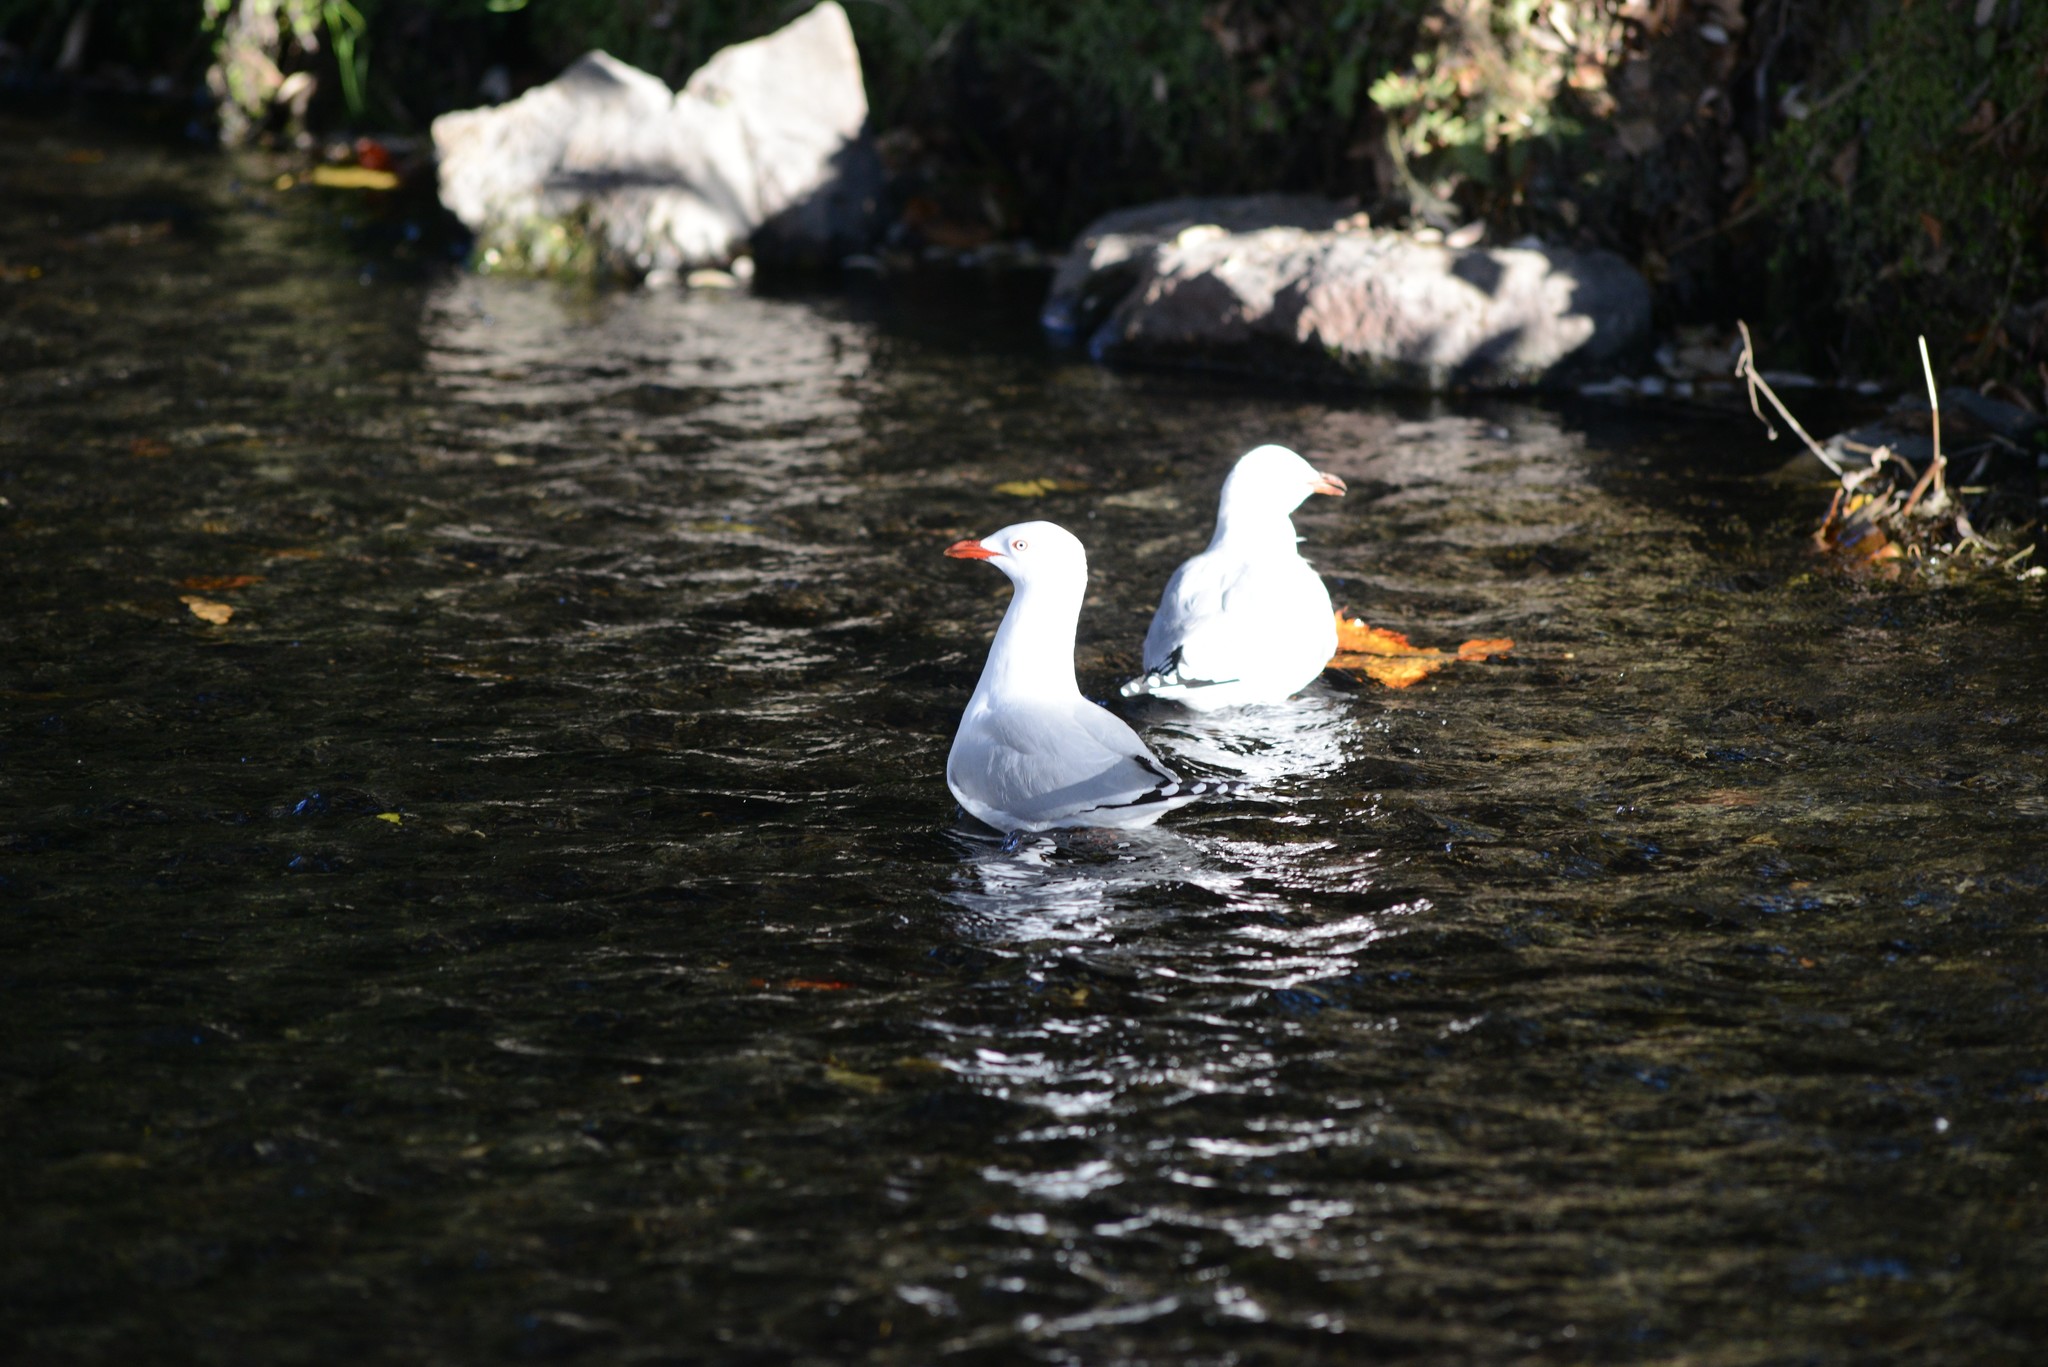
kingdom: Animalia
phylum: Chordata
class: Aves
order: Charadriiformes
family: Laridae
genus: Chroicocephalus
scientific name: Chroicocephalus novaehollandiae
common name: Silver gull
